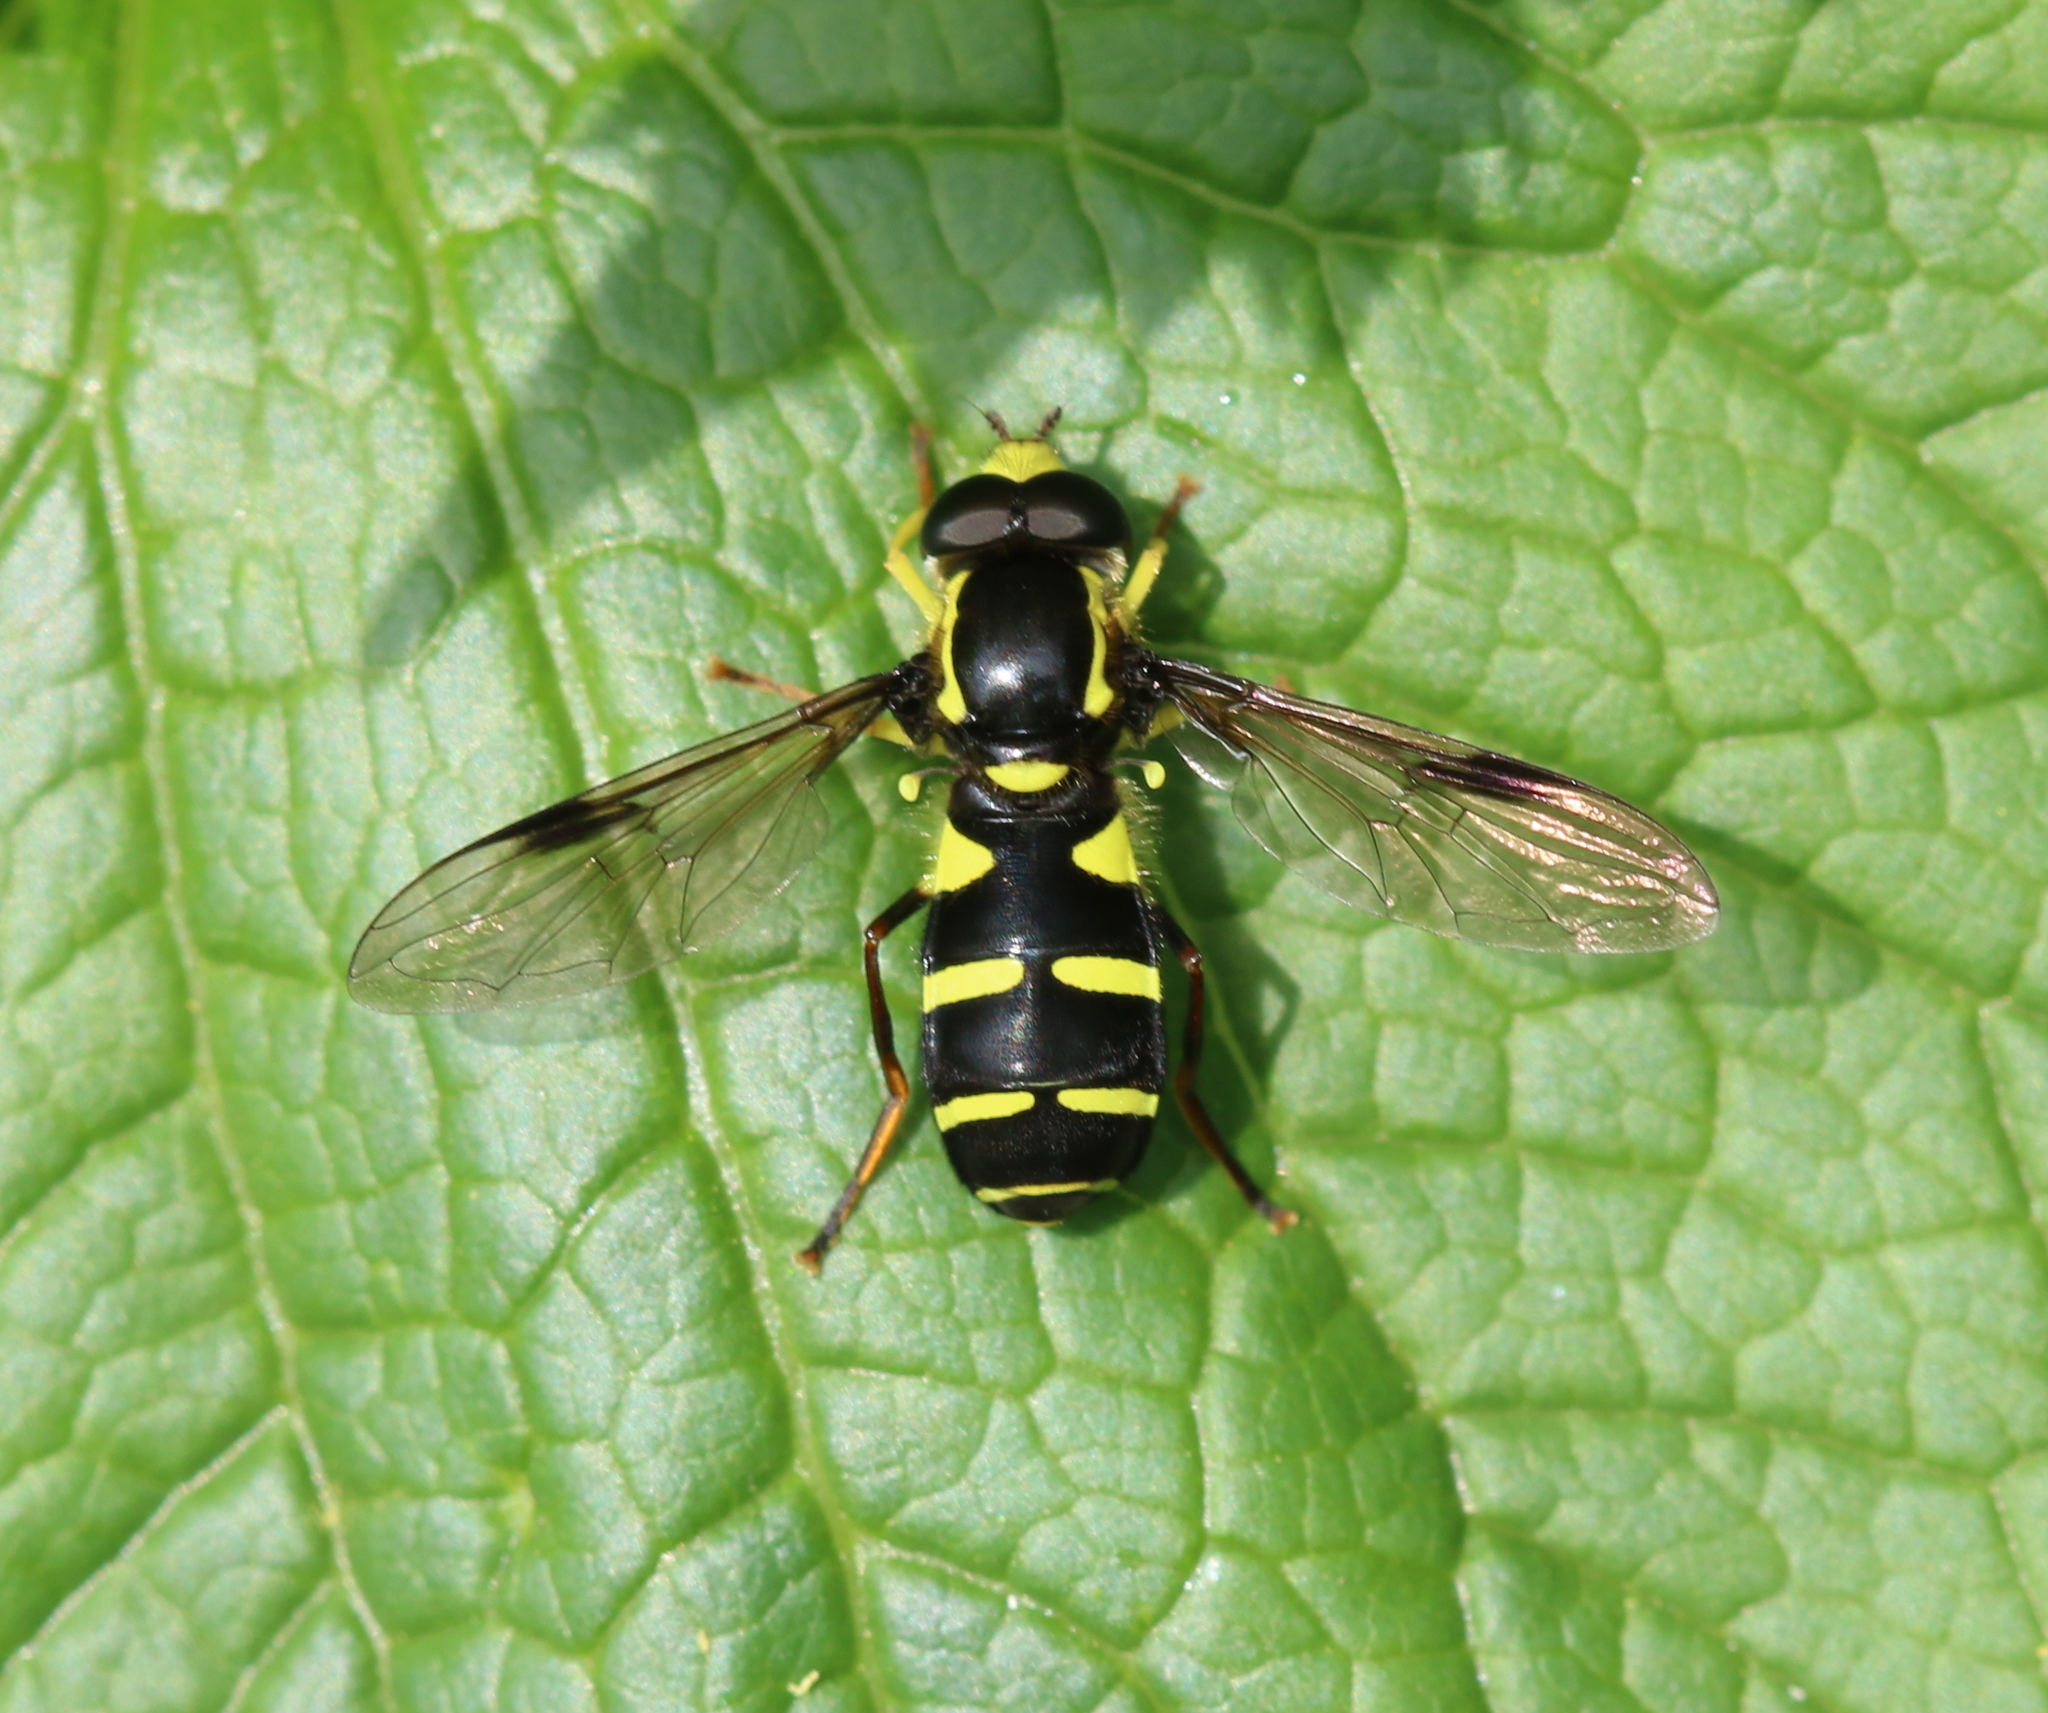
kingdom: Animalia
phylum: Arthropoda
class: Insecta
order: Diptera
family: Syrphidae
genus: Philhelius
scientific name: Philhelius pedissequum
